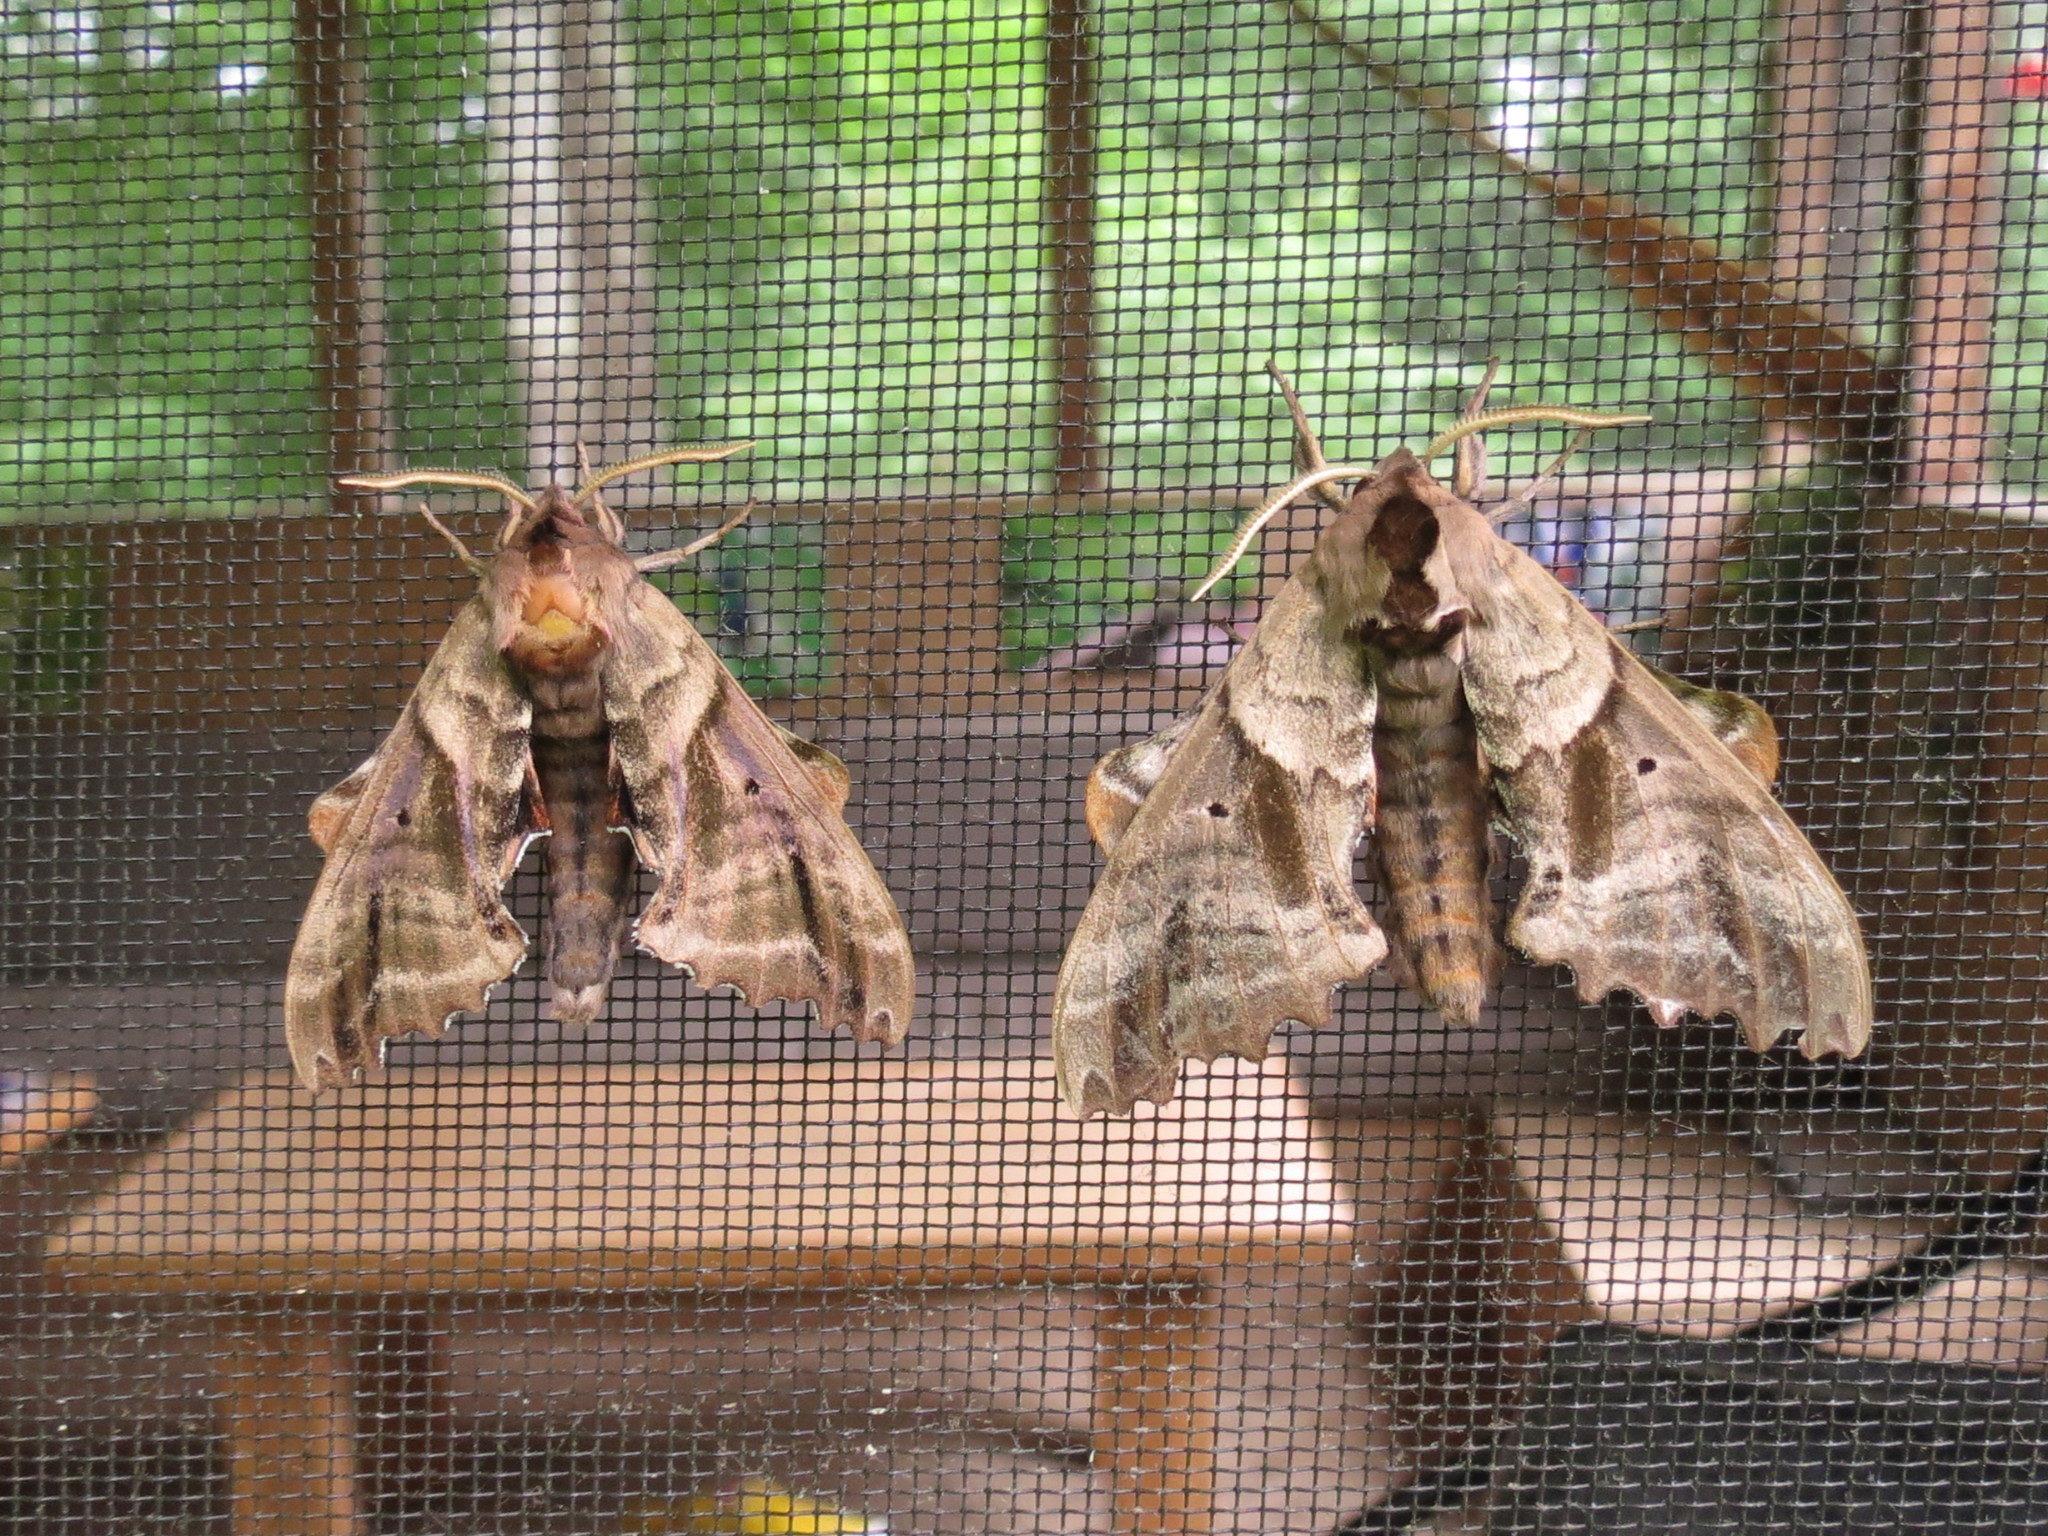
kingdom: Animalia
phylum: Arthropoda
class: Insecta
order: Lepidoptera
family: Sphingidae
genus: Paonias
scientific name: Paonias excaecata
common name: Blind-eyed sphinx
